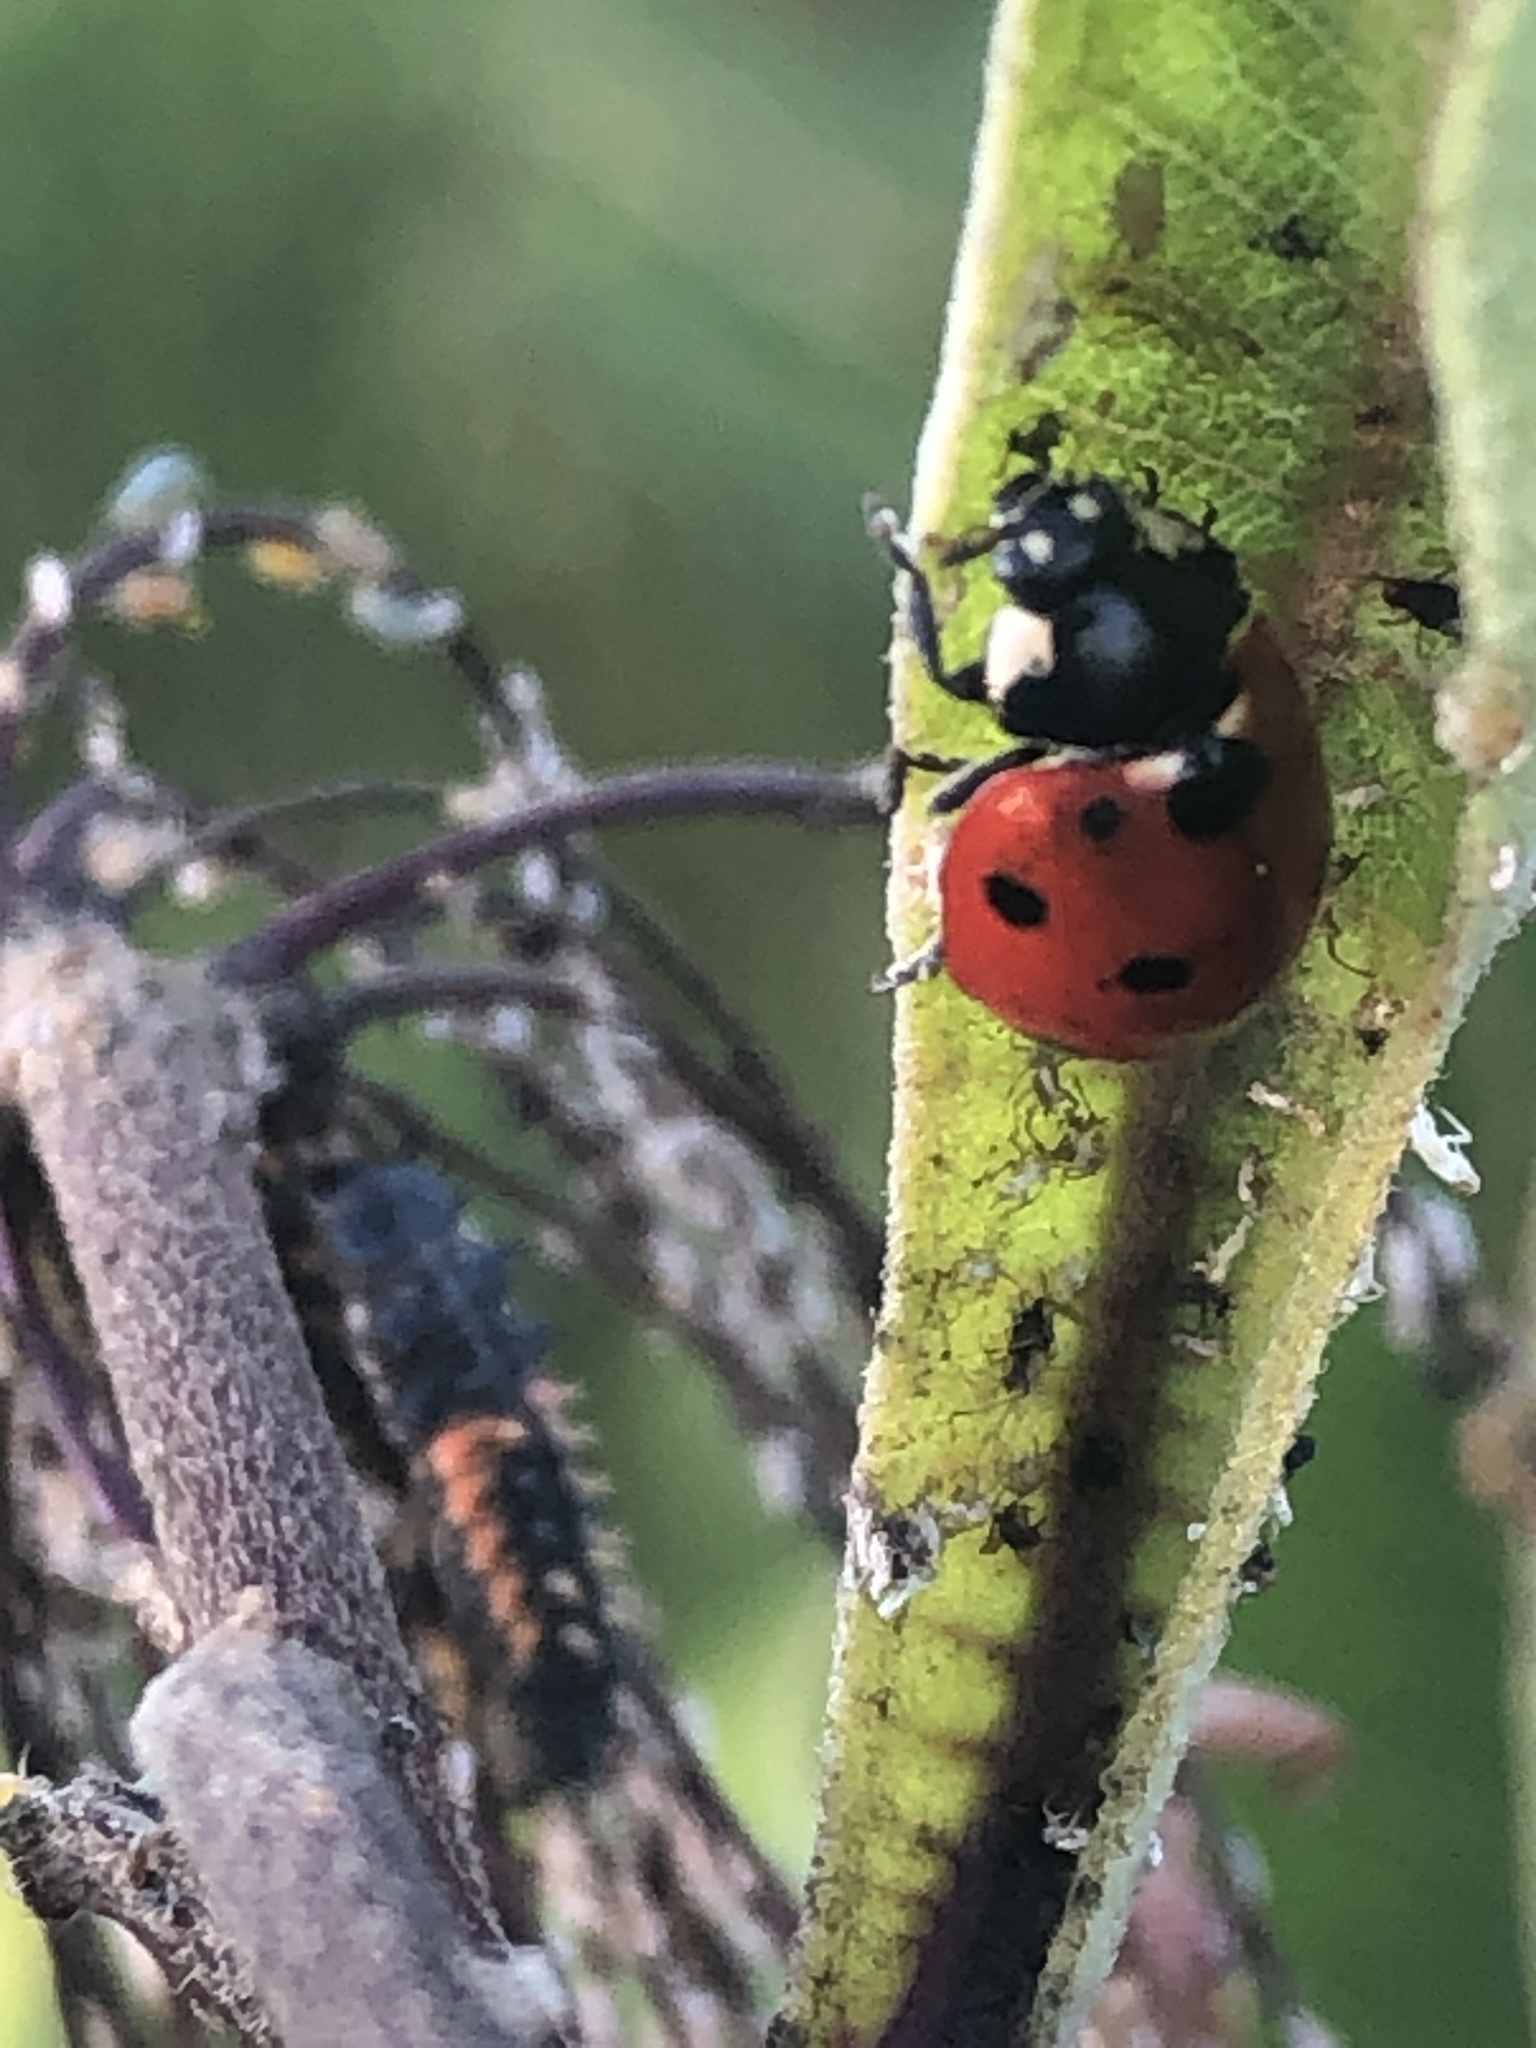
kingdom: Animalia
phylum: Arthropoda
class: Insecta
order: Coleoptera
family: Coccinellidae
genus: Coccinella
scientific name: Coccinella septempunctata
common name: Sevenspotted lady beetle
